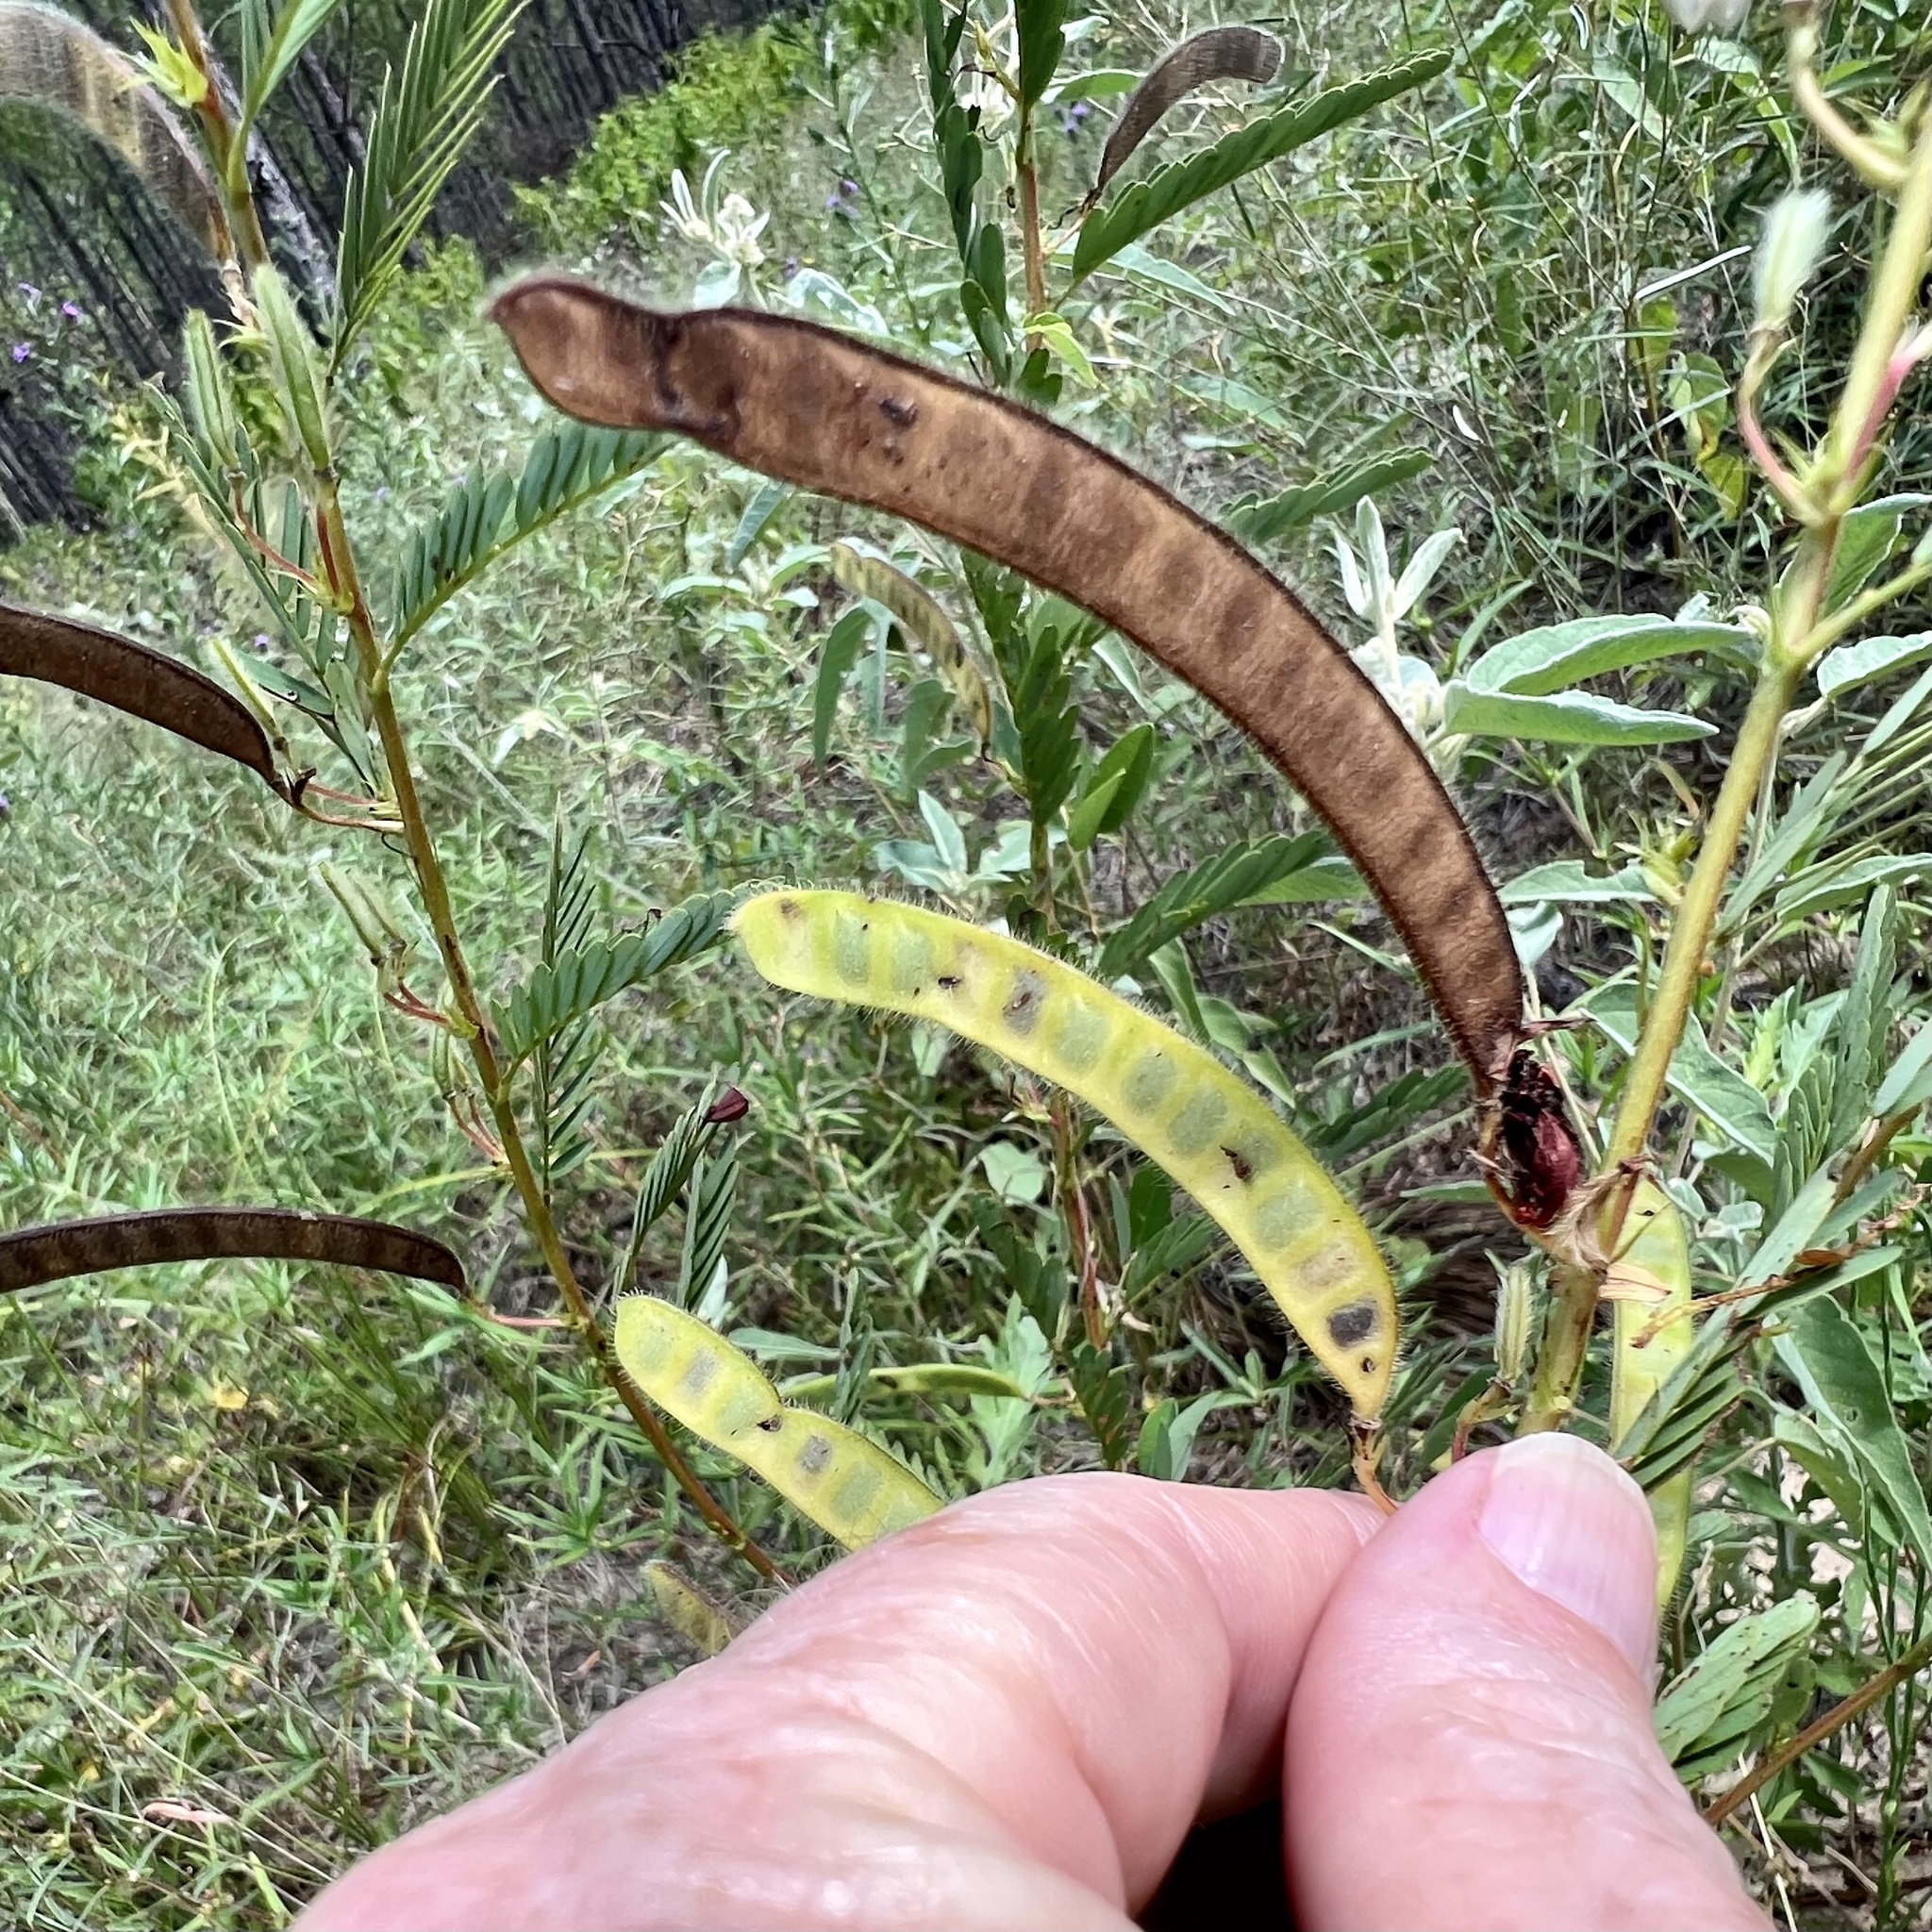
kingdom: Plantae
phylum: Tracheophyta
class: Magnoliopsida
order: Fabales
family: Fabaceae
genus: Chamaecrista
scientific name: Chamaecrista fasciculata
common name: Golden cassia
